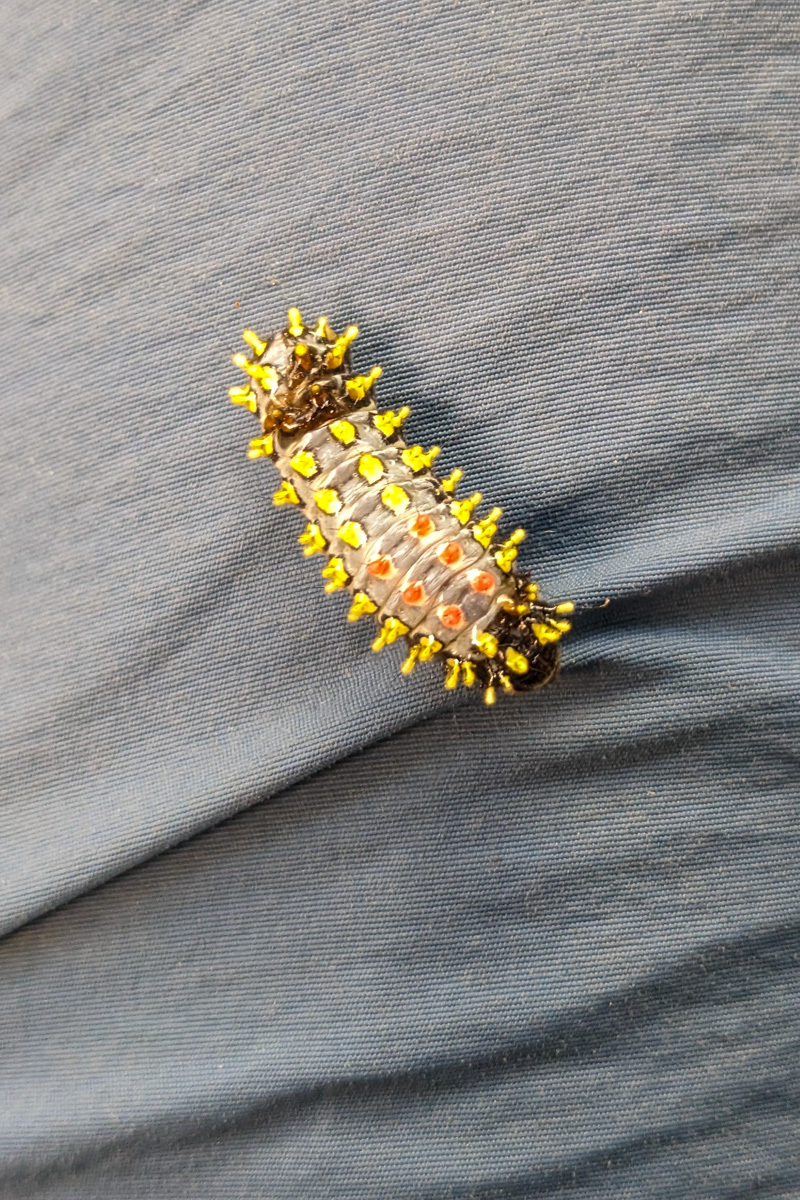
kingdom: Animalia
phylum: Arthropoda
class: Insecta
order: Lepidoptera
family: Zygaenidae
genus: Cyclosia
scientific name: Cyclosia papilionaris
